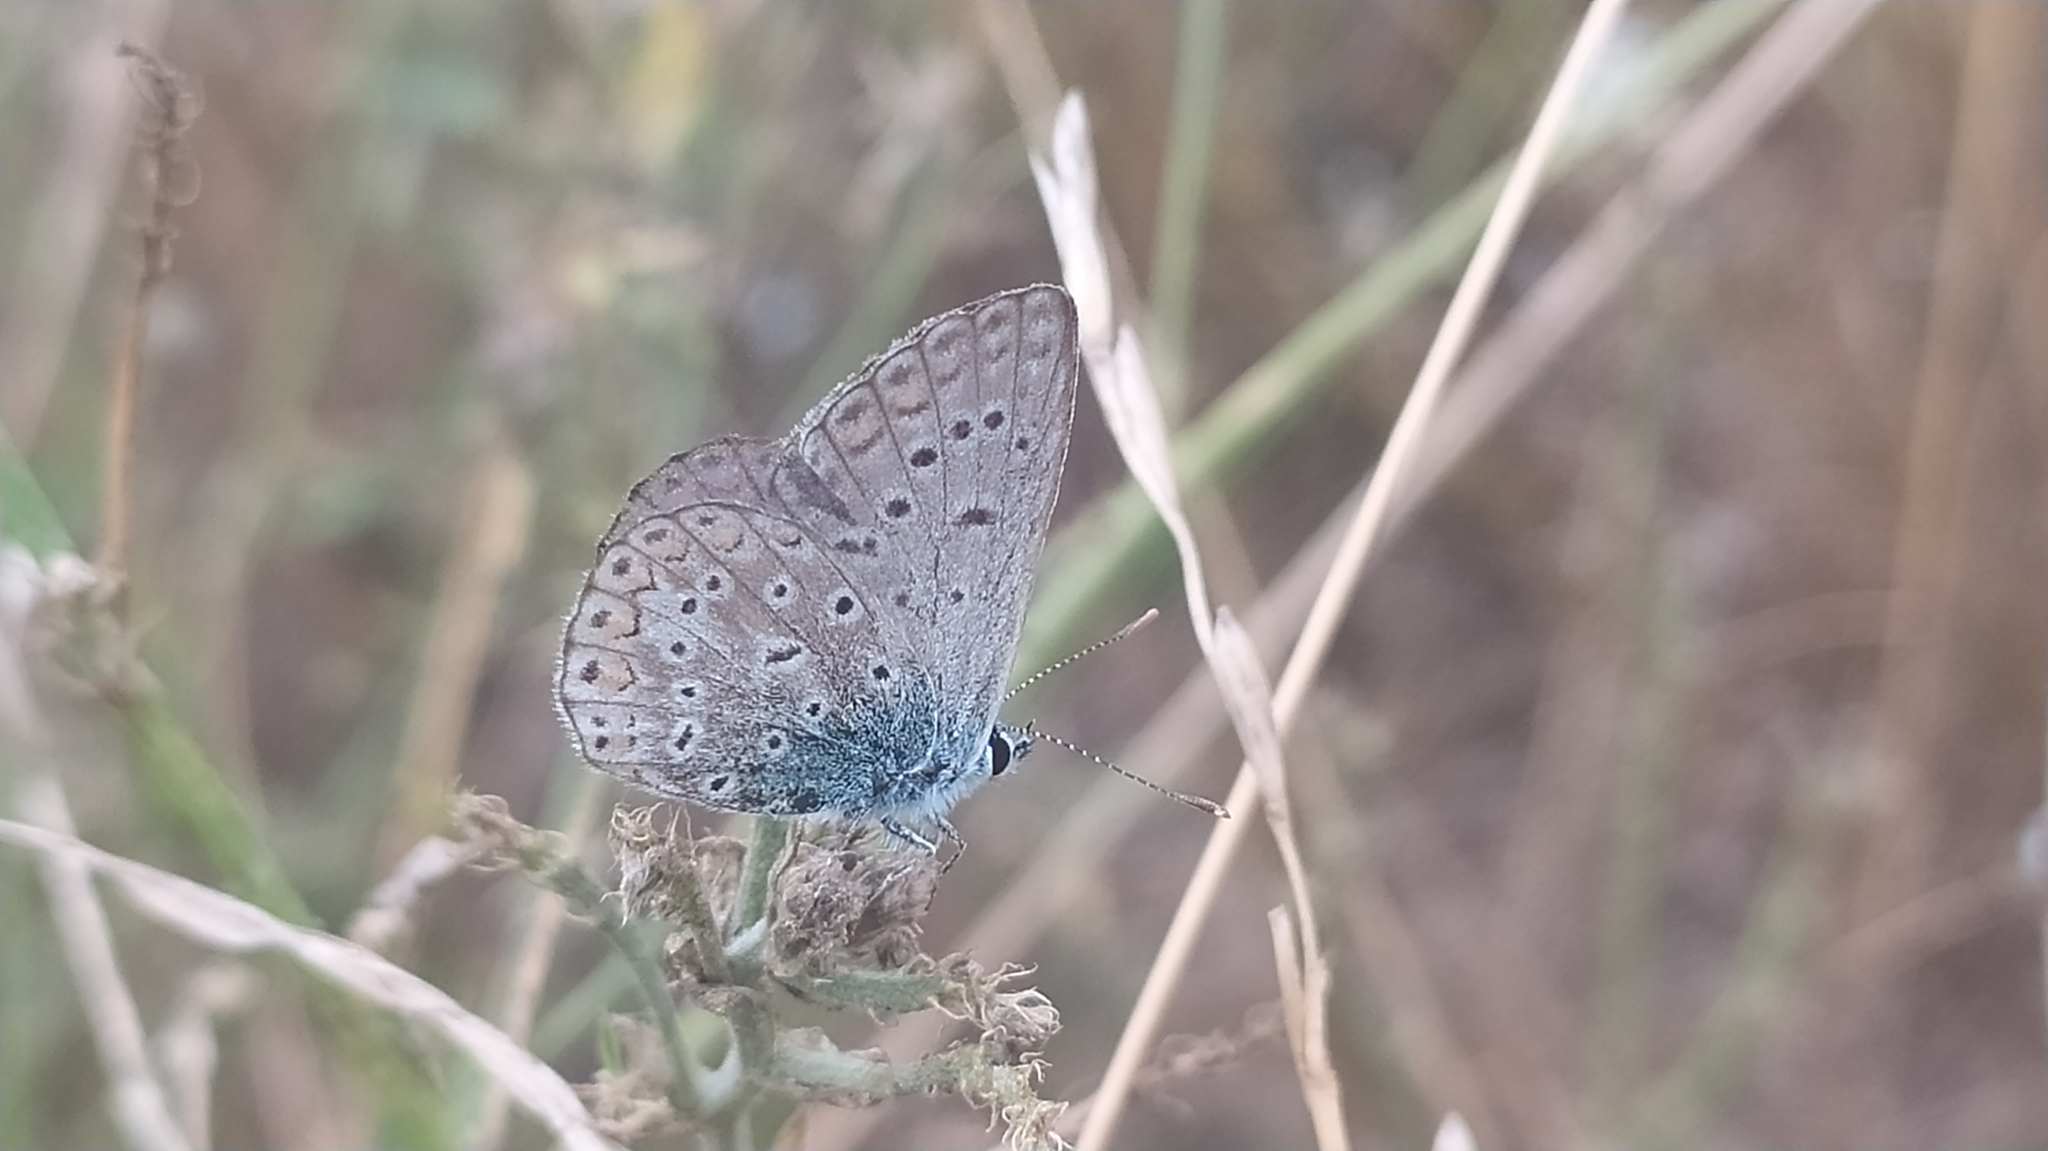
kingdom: Animalia
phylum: Arthropoda
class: Insecta
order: Lepidoptera
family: Lycaenidae
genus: Polyommatus
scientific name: Polyommatus icarus
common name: Common blue
